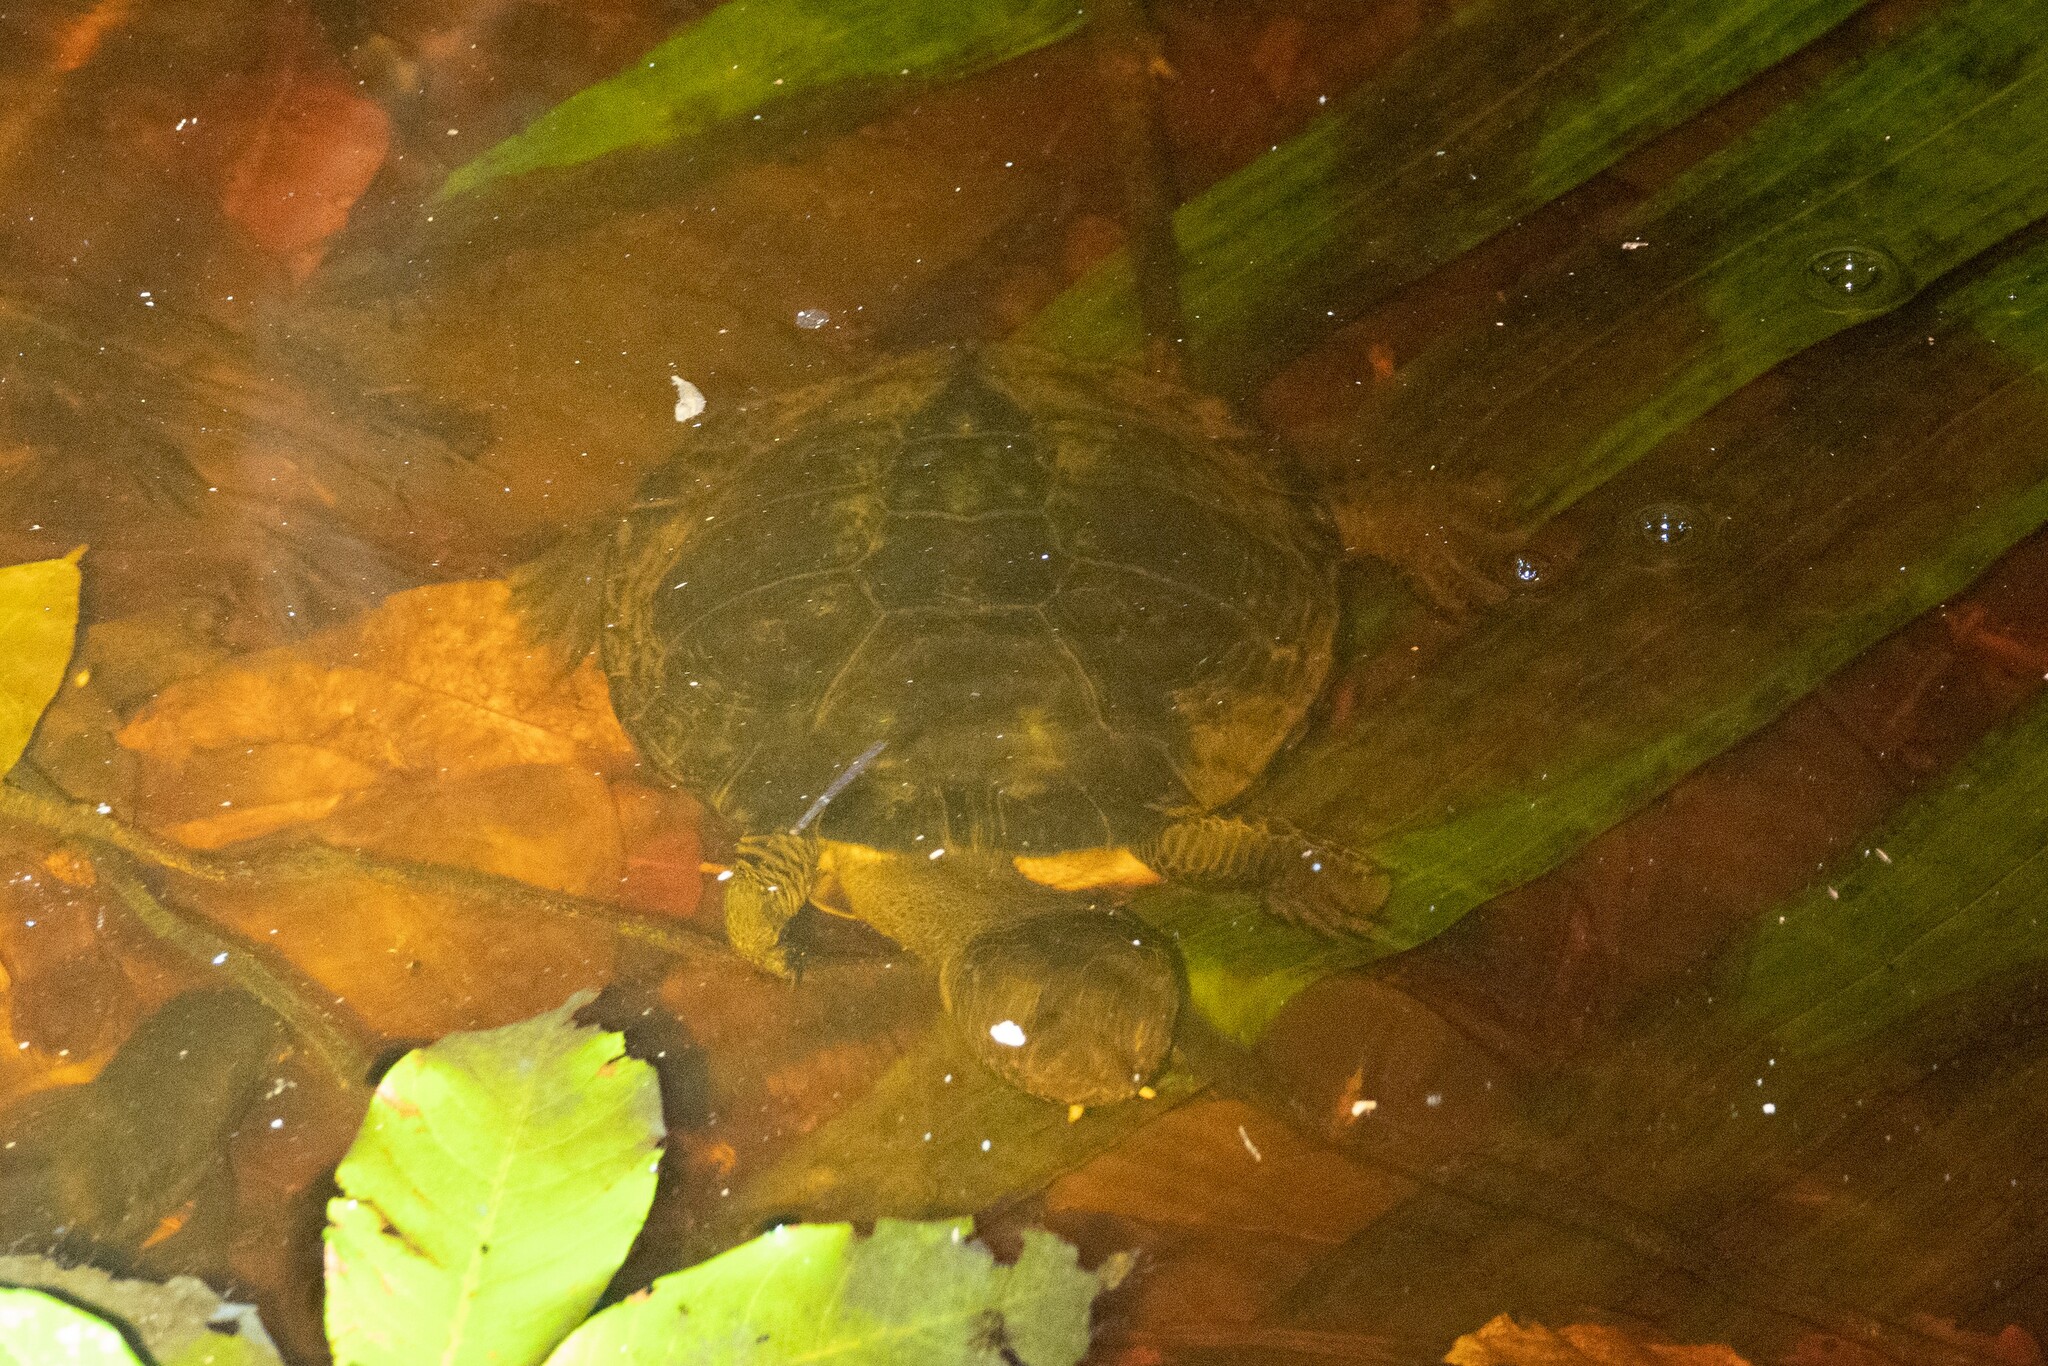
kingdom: Animalia
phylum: Chordata
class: Testudines
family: Chelidae
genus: Mesoclemmys
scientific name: Mesoclemmys gibba
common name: Gibba turtle
